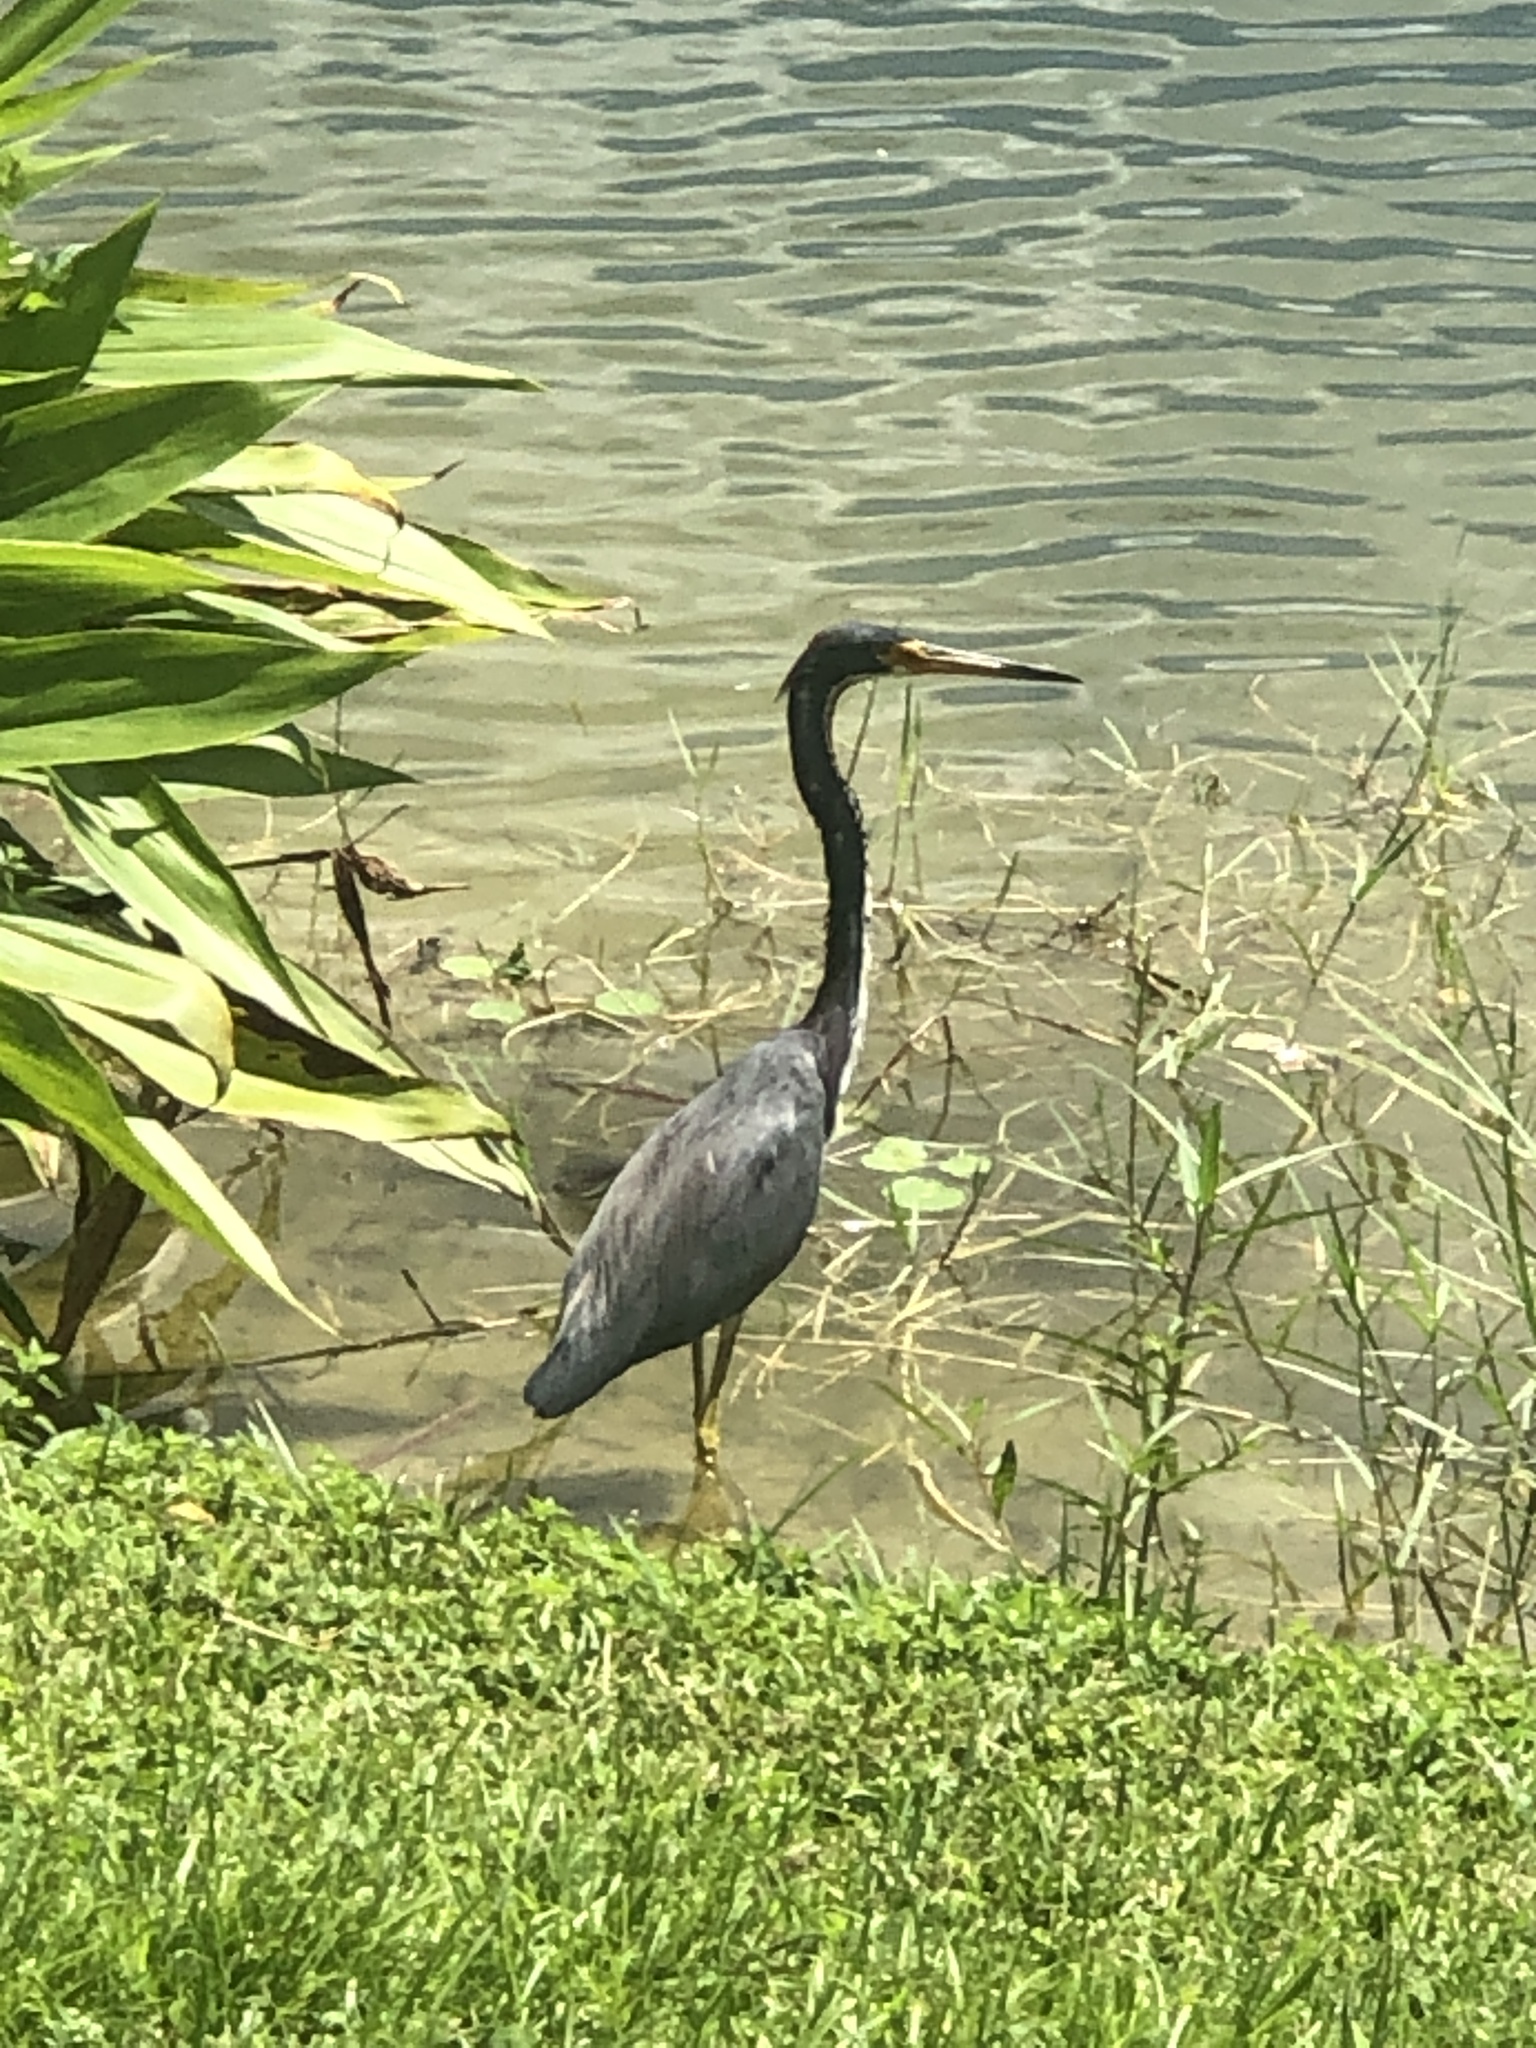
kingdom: Animalia
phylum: Chordata
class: Aves
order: Pelecaniformes
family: Ardeidae
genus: Egretta
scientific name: Egretta tricolor
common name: Tricolored heron
